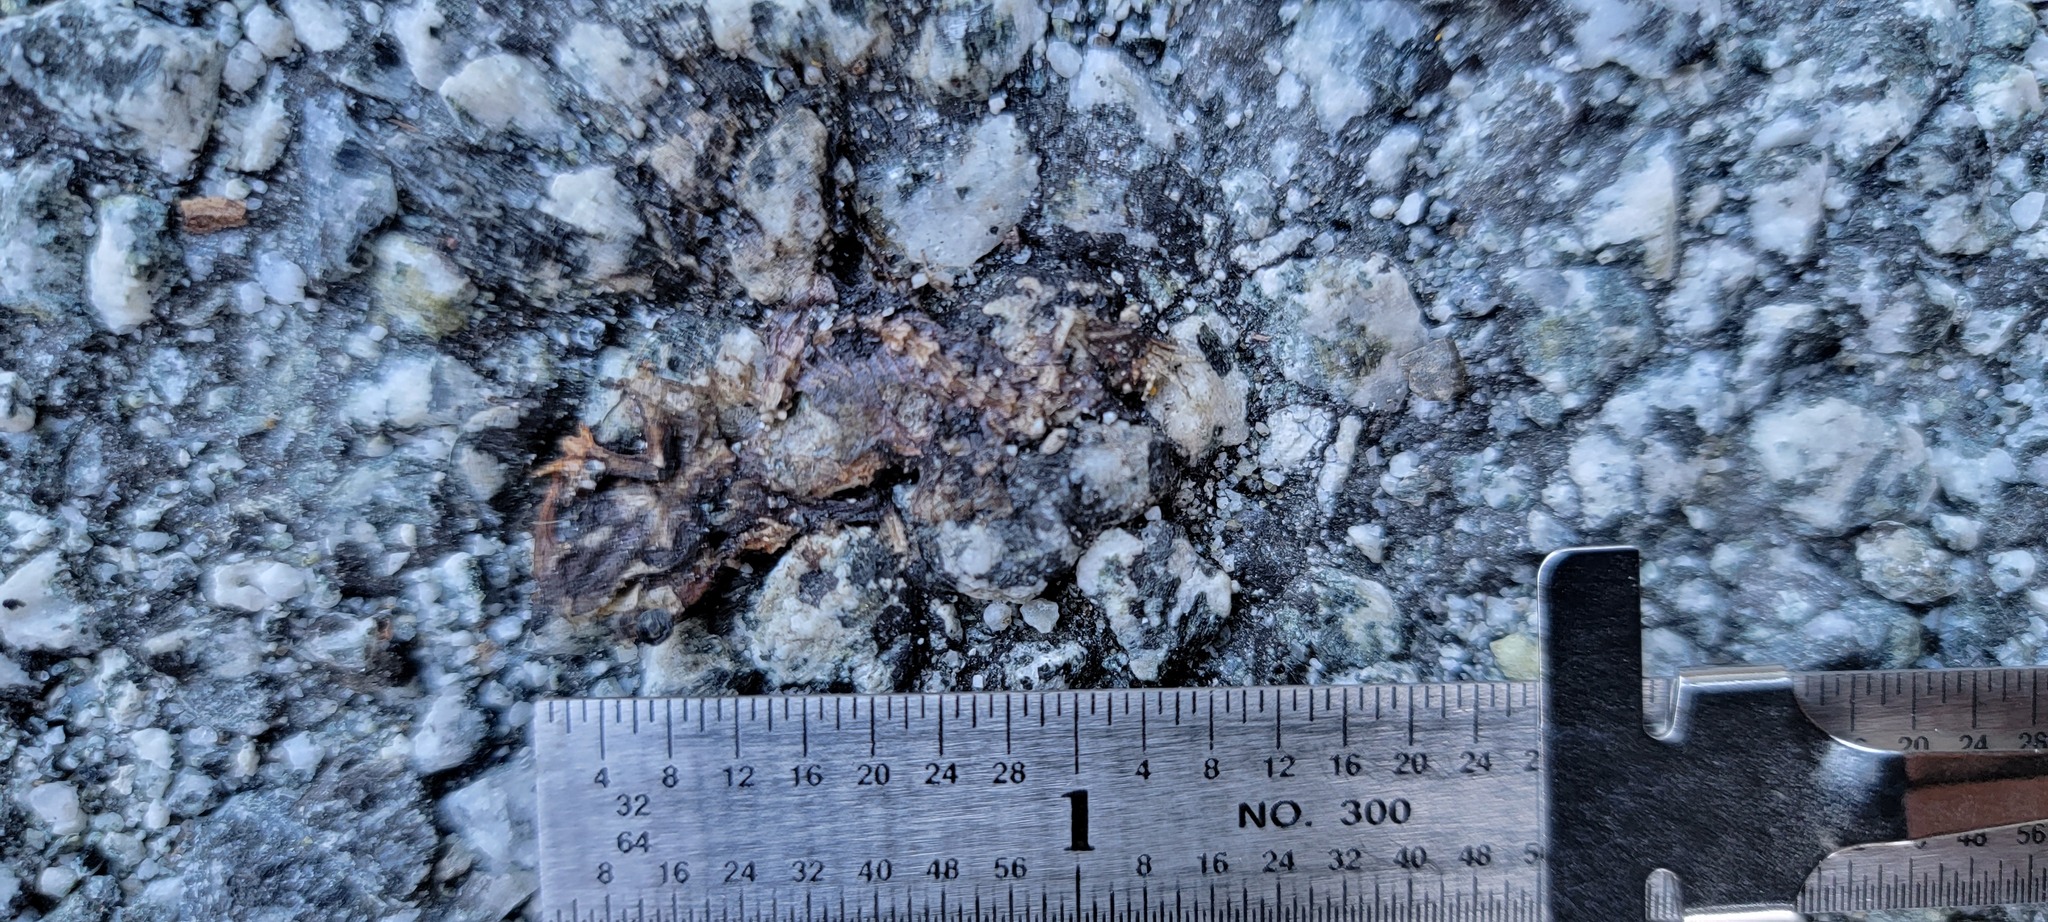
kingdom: Animalia
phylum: Chordata
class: Amphibia
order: Caudata
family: Salamandridae
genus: Taricha
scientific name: Taricha
